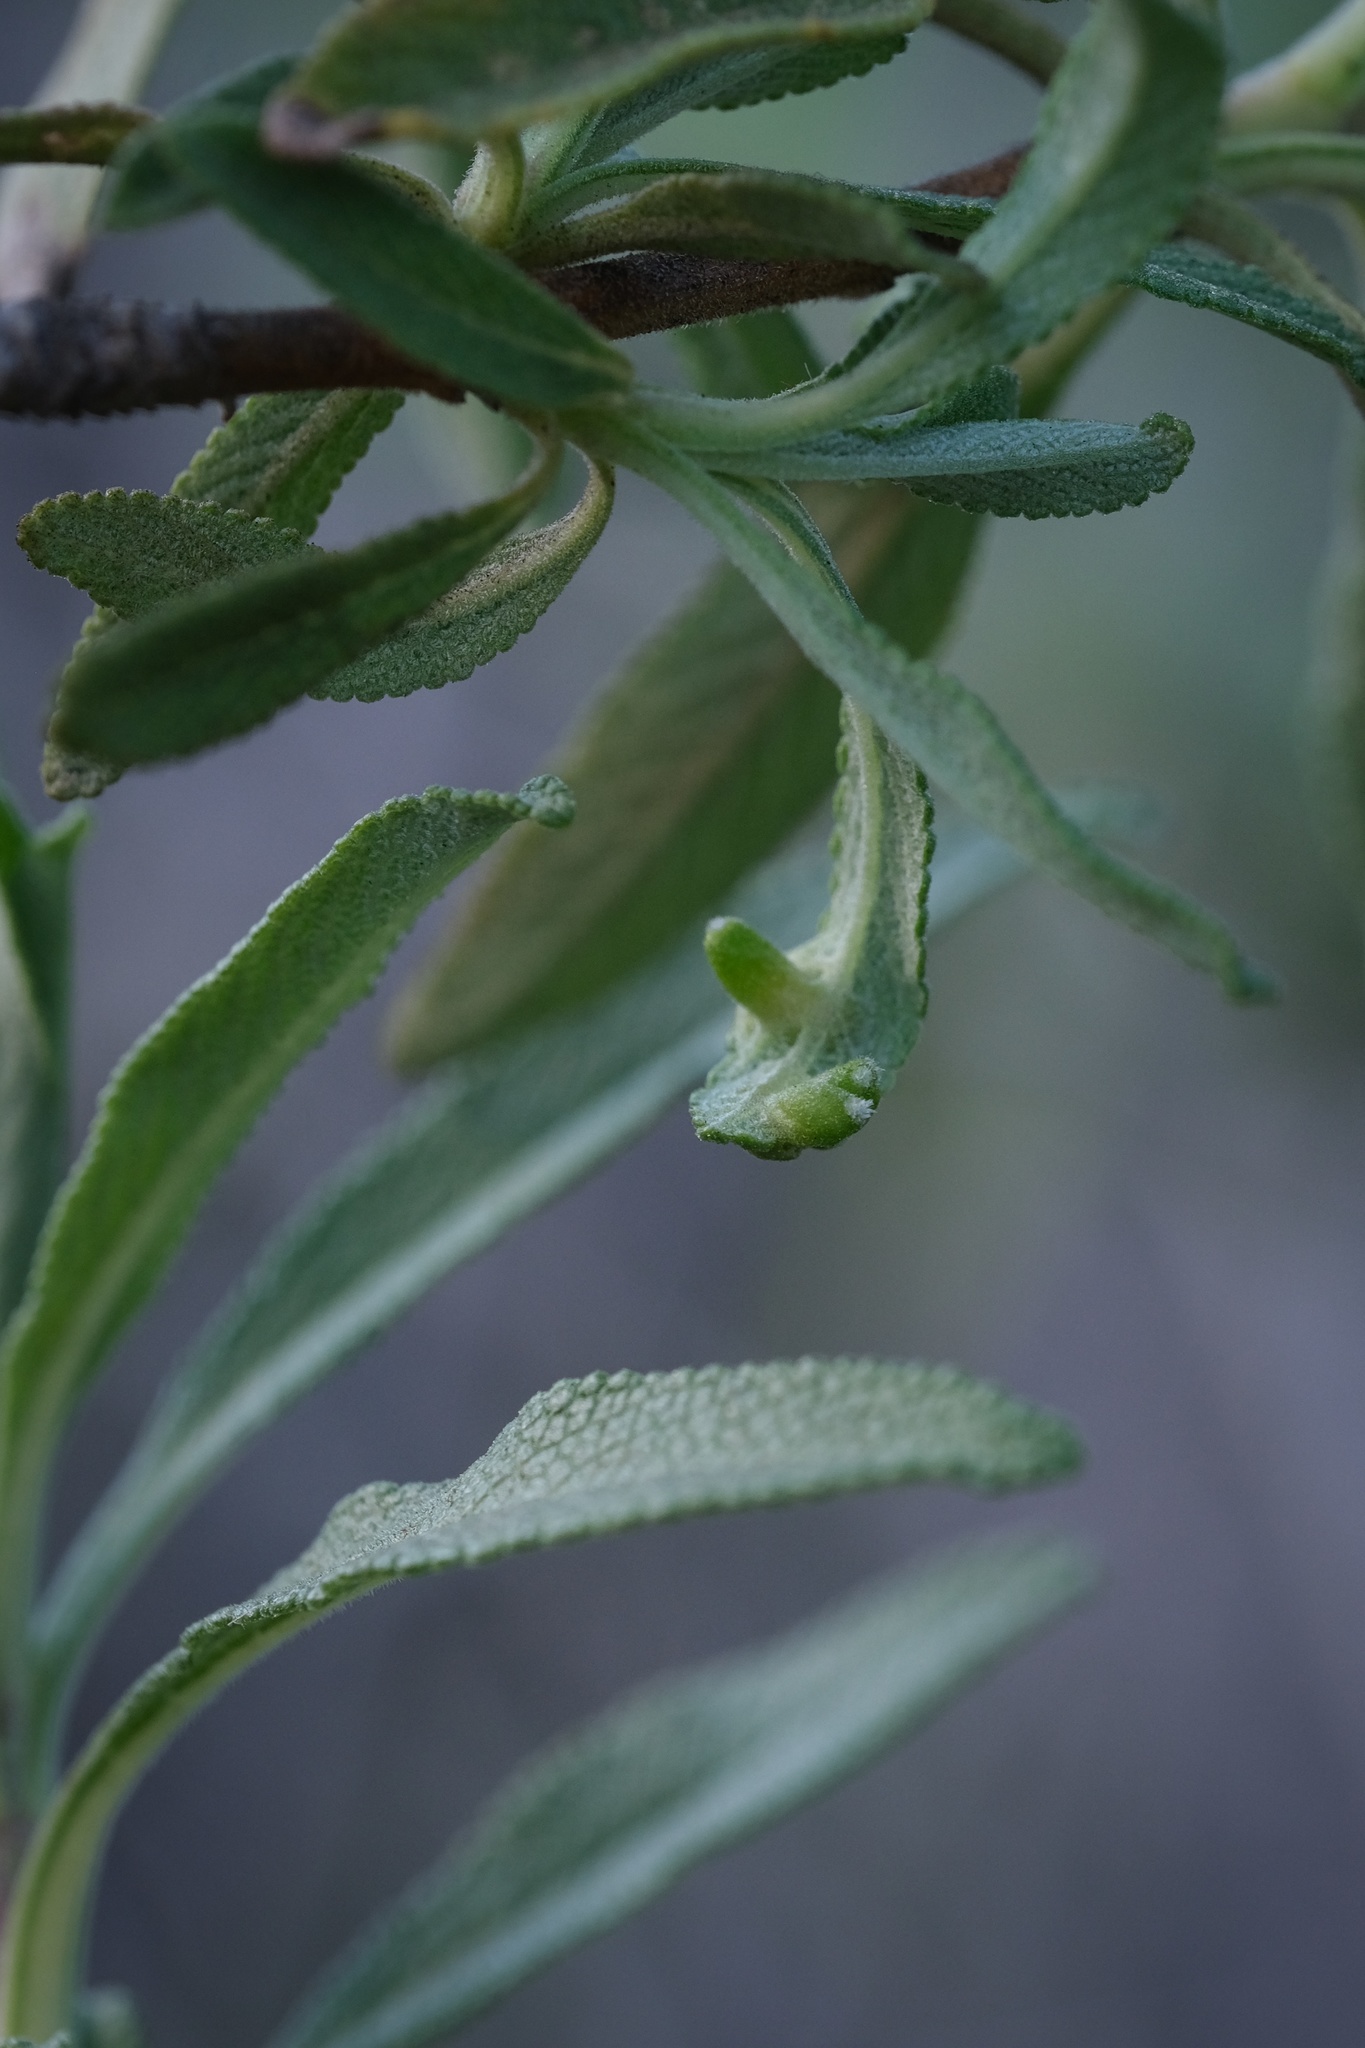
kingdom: Animalia
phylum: Arthropoda
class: Insecta
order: Diptera
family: Cecidomyiidae
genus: Rhopalomyia
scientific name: Rhopalomyia audibertiae
